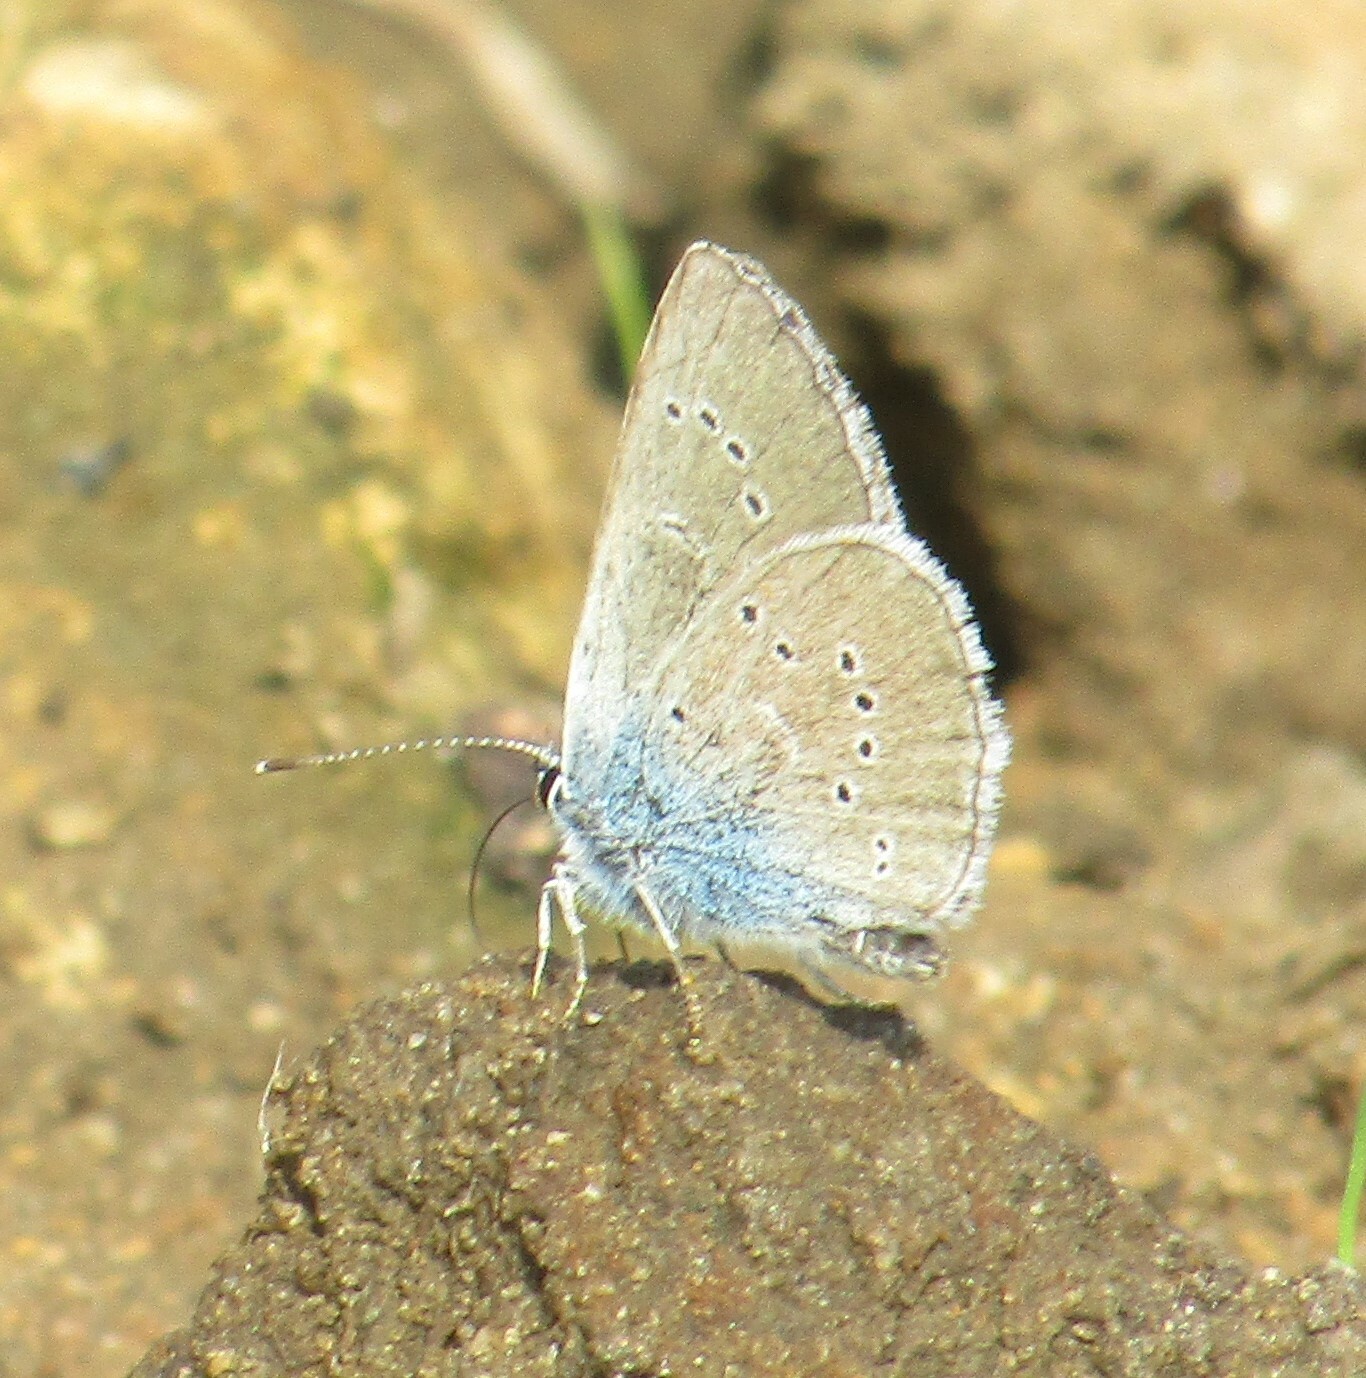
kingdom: Animalia
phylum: Arthropoda
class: Insecta
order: Lepidoptera
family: Lycaenidae
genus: Cyaniris
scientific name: Cyaniris semiargus
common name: Mazarine blue
